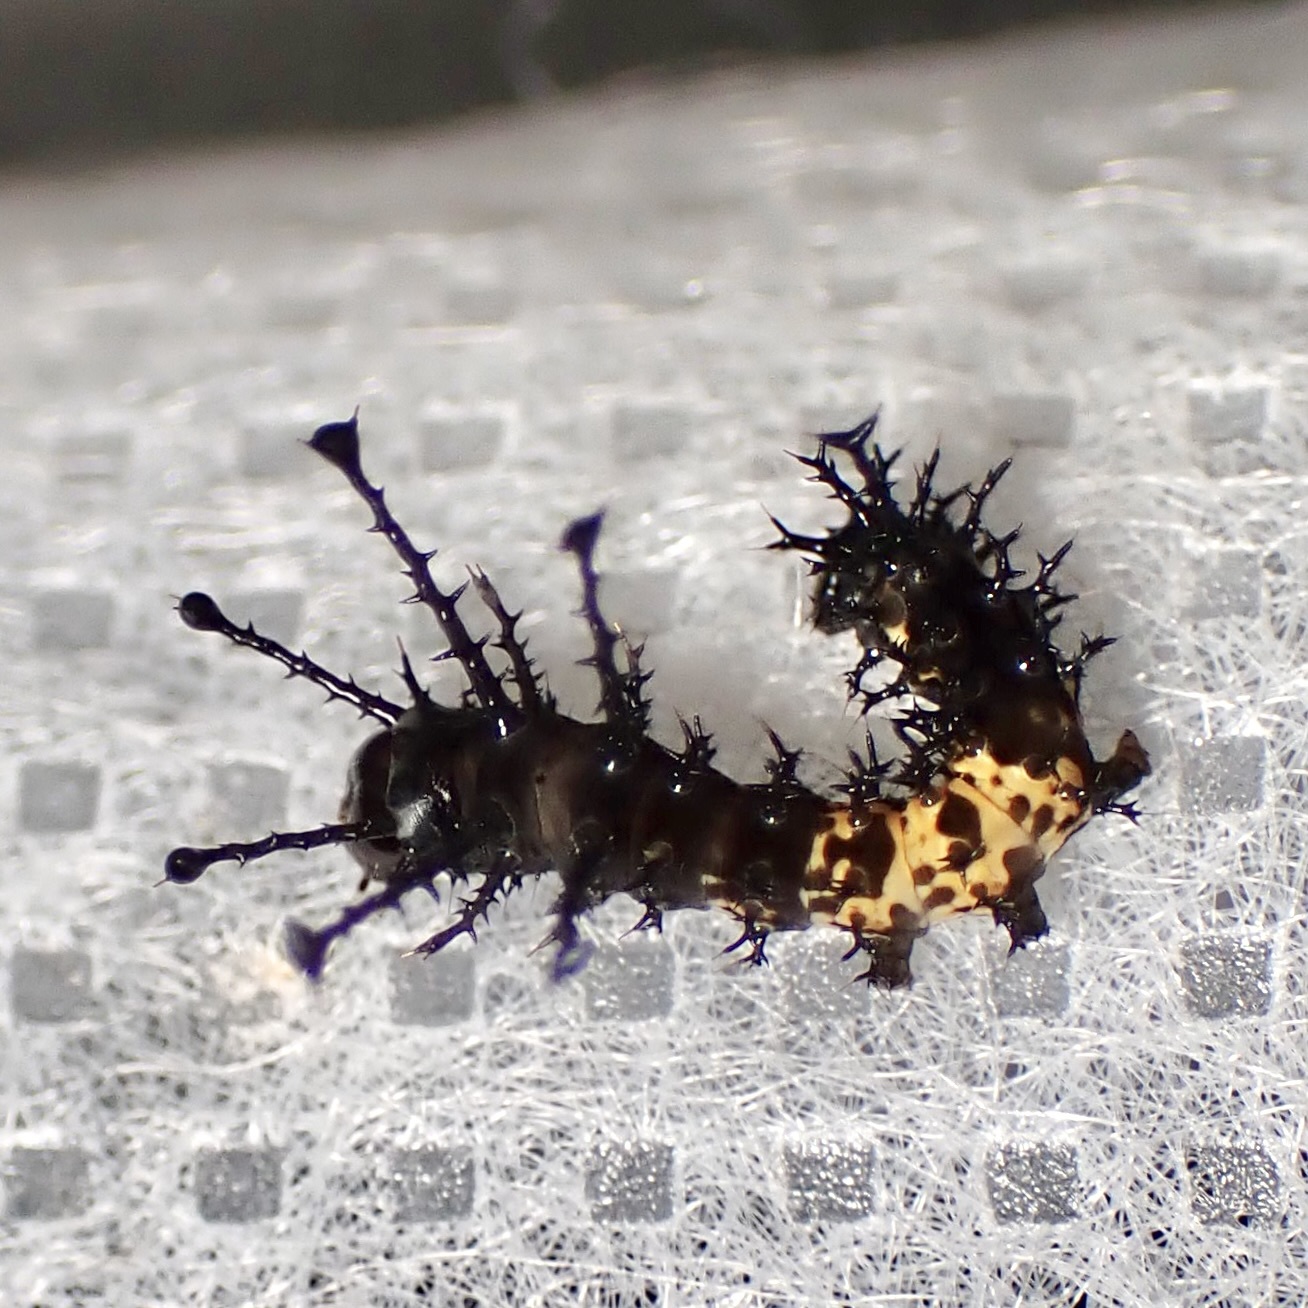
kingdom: Animalia
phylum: Arthropoda
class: Insecta
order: Lepidoptera
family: Saturniidae
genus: Citheronia
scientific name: Citheronia splendens
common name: Splendid royal moth
